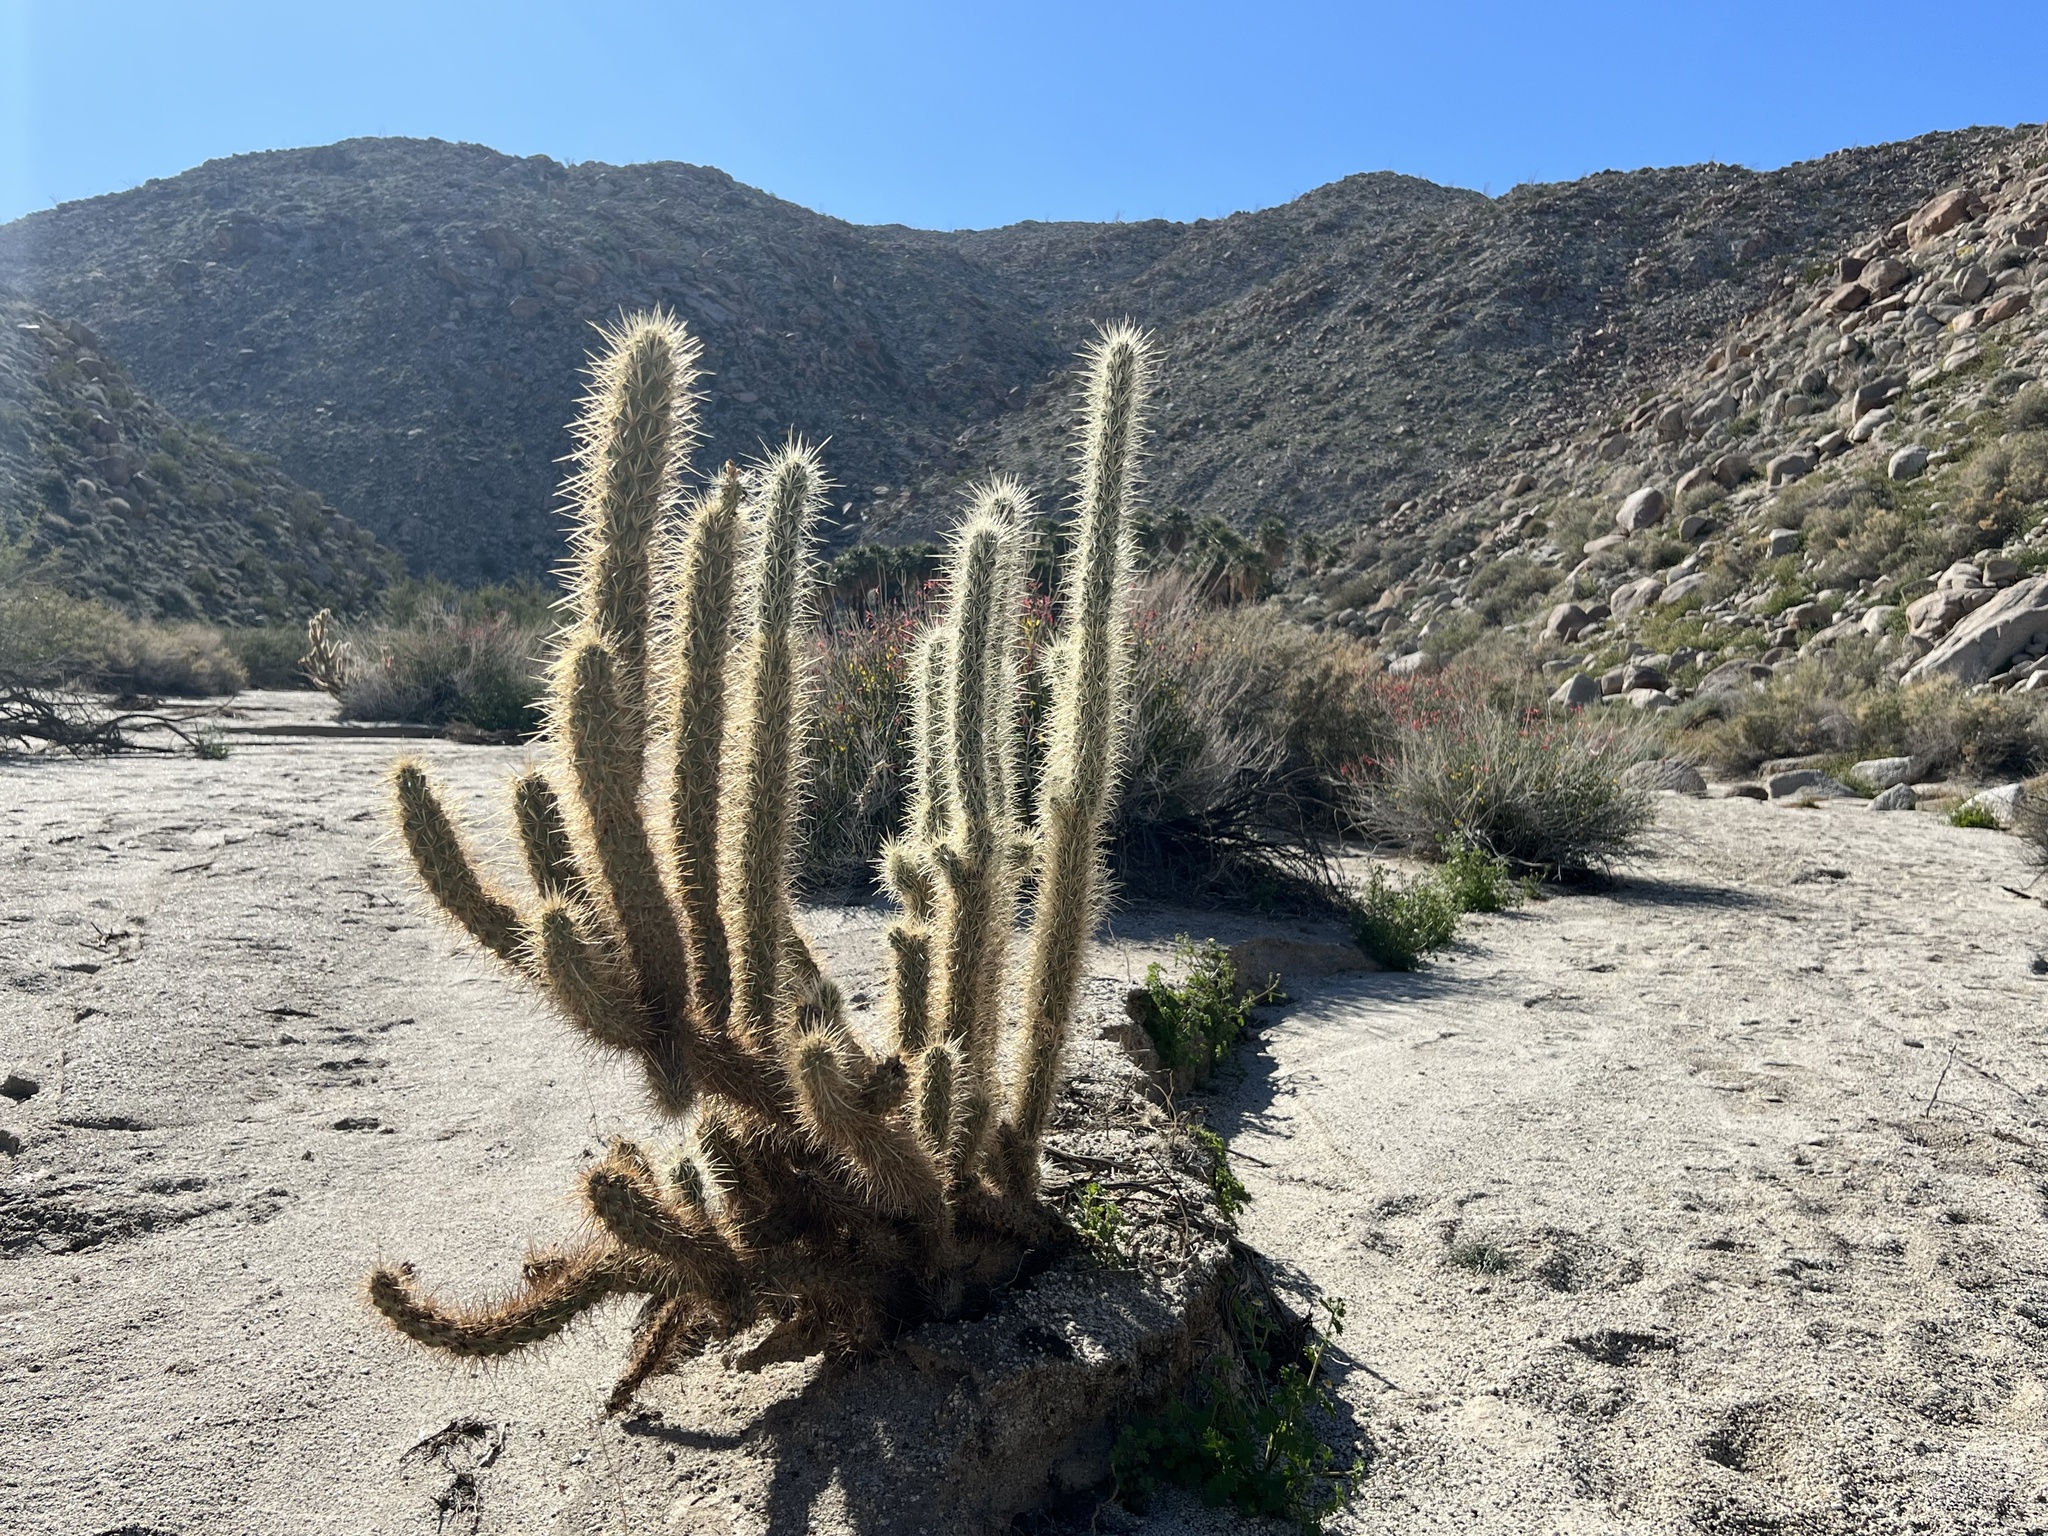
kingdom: Plantae
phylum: Tracheophyta
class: Magnoliopsida
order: Caryophyllales
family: Cactaceae
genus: Cylindropuntia
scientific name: Cylindropuntia ganderi
